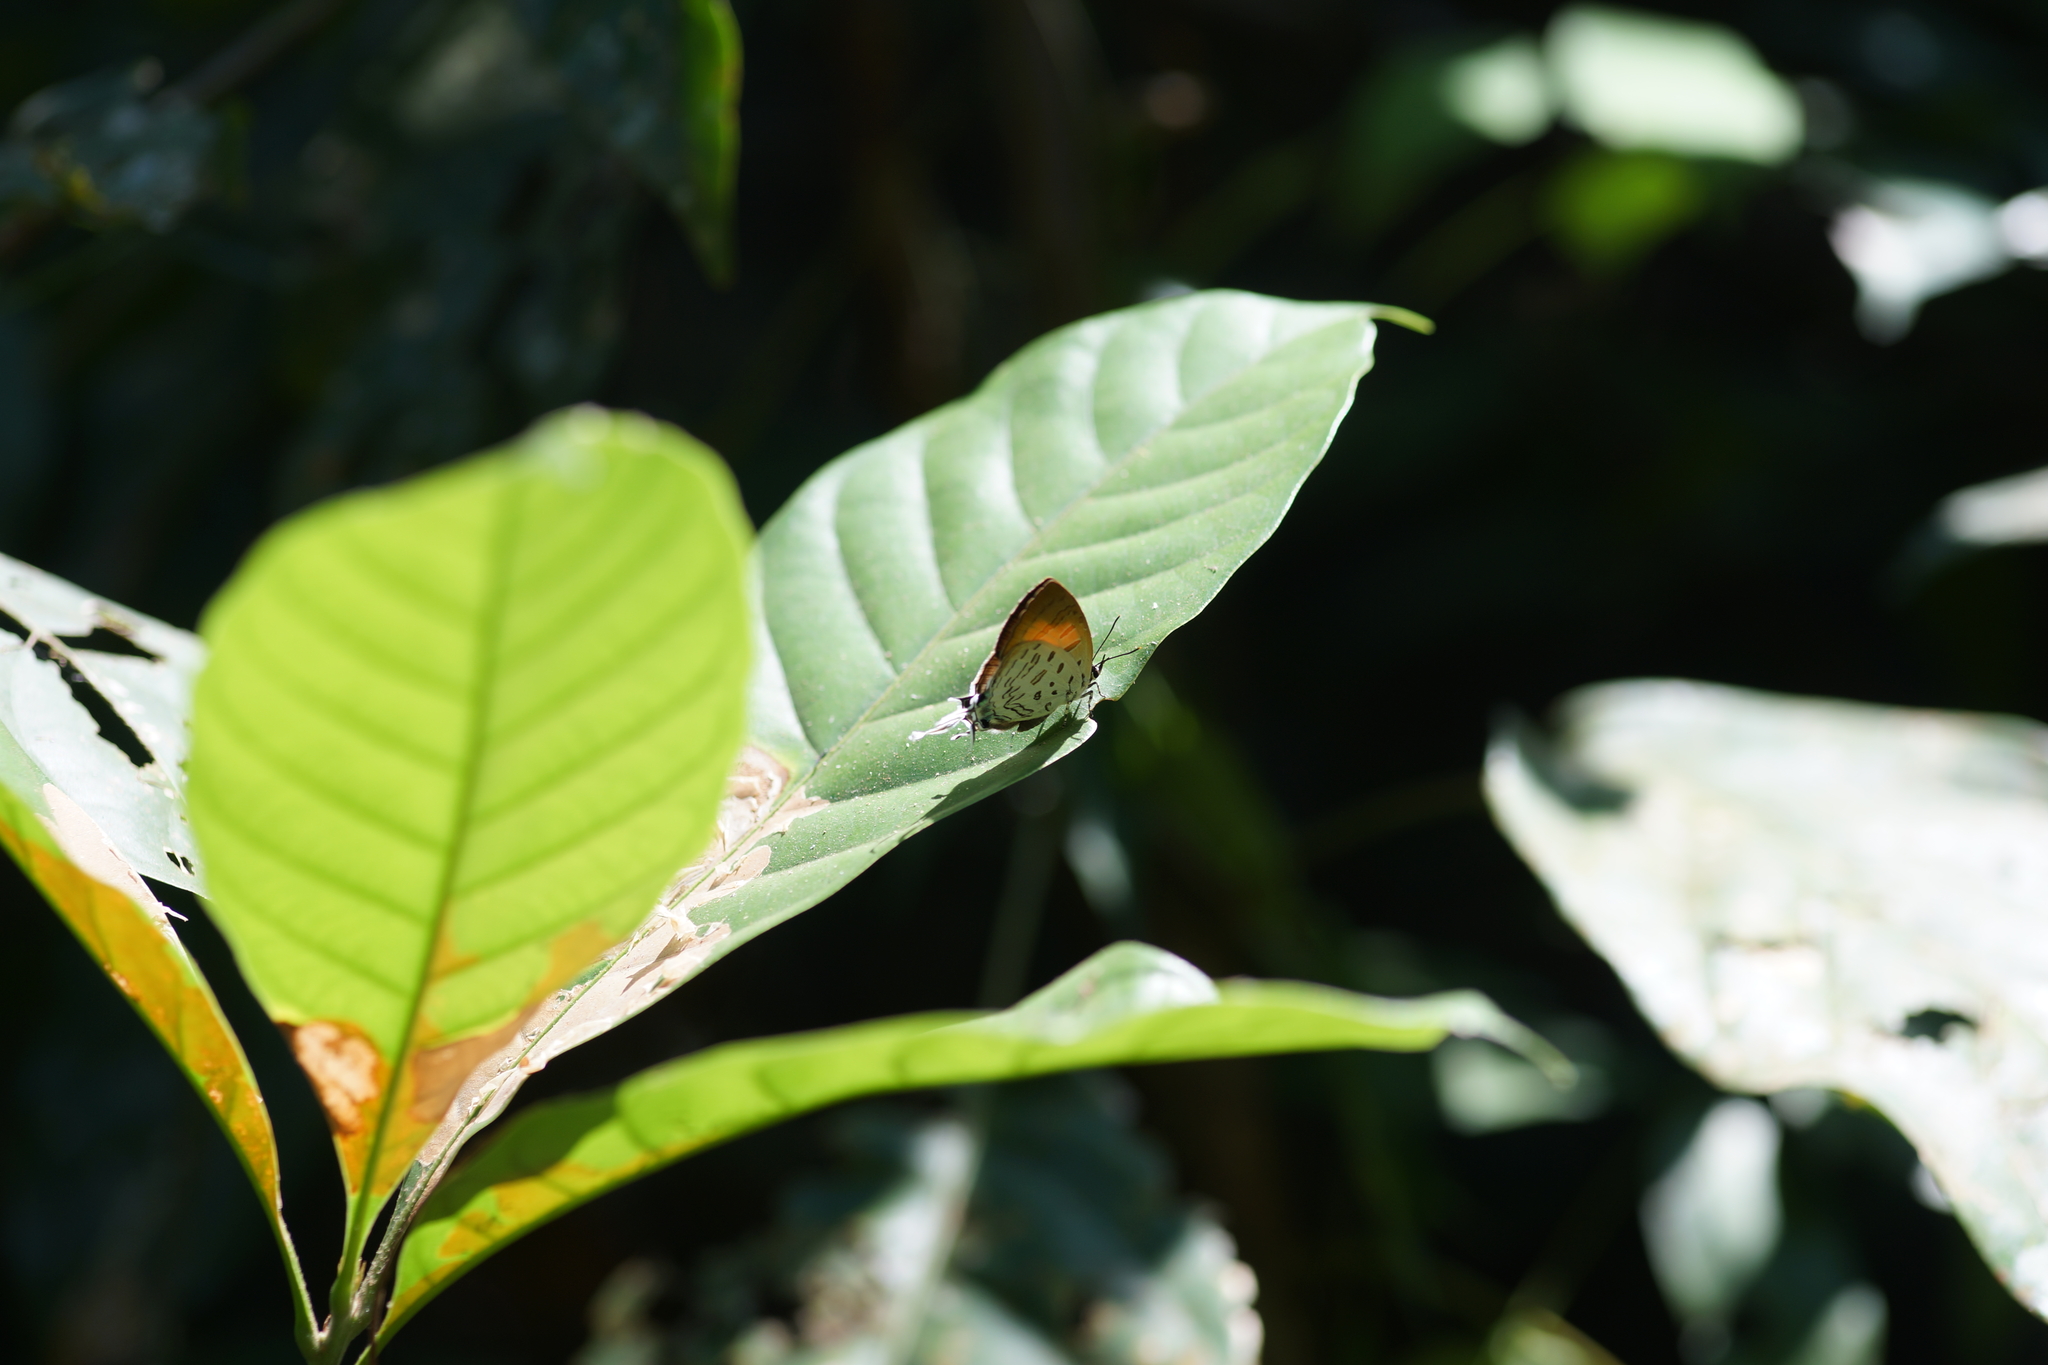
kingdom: Animalia
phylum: Arthropoda
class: Insecta
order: Lepidoptera
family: Lycaenidae
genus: Drupadia
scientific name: Drupadia theda
